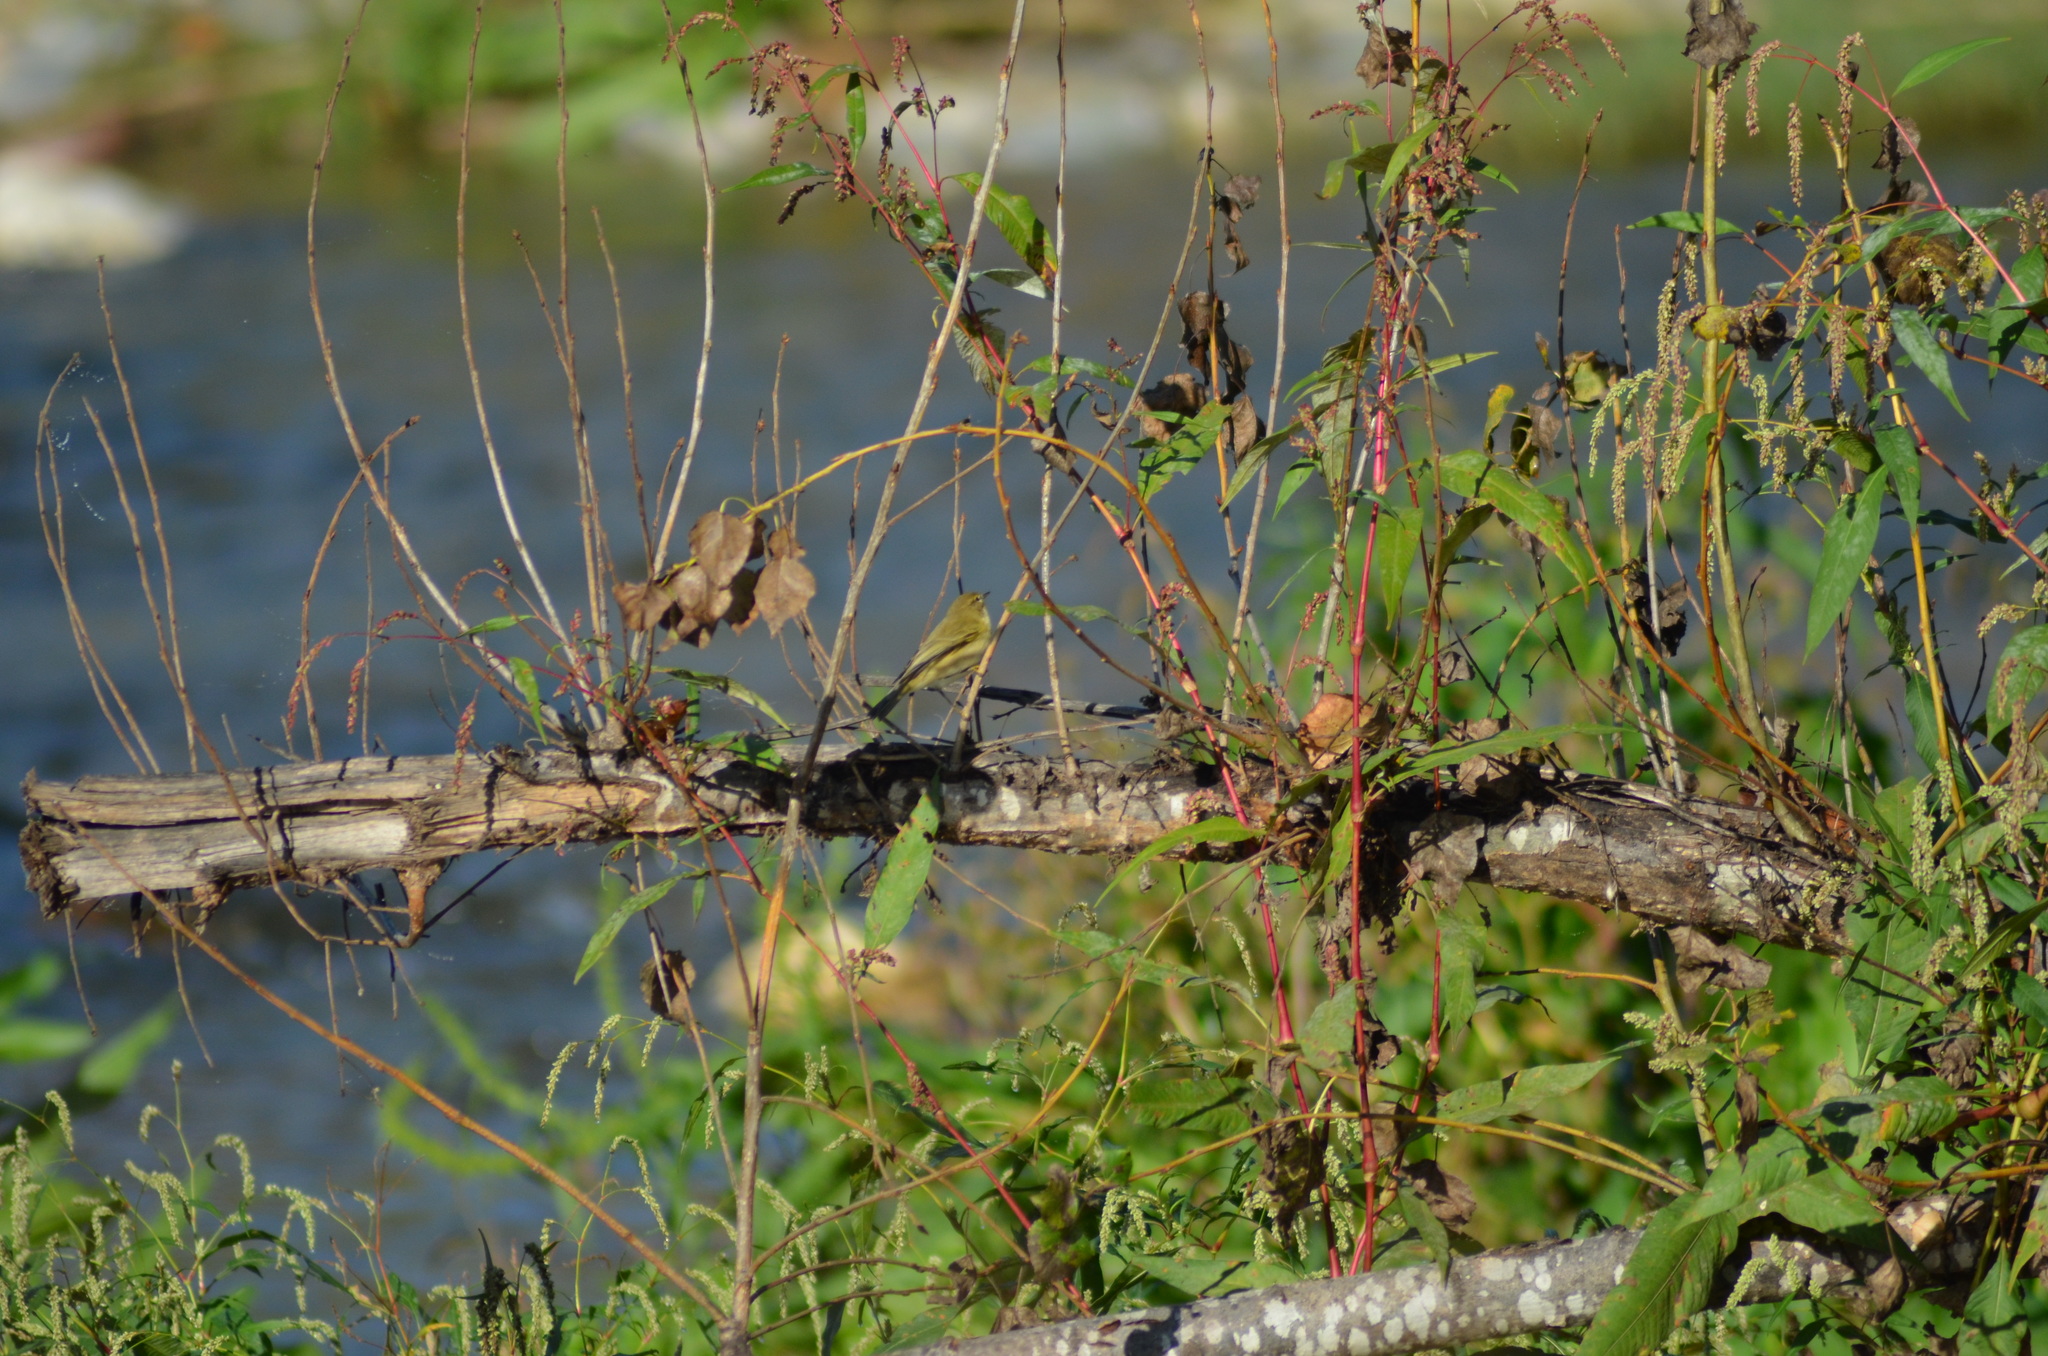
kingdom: Animalia
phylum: Chordata
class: Aves
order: Passeriformes
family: Phylloscopidae
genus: Phylloscopus
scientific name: Phylloscopus collybita
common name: Common chiffchaff
